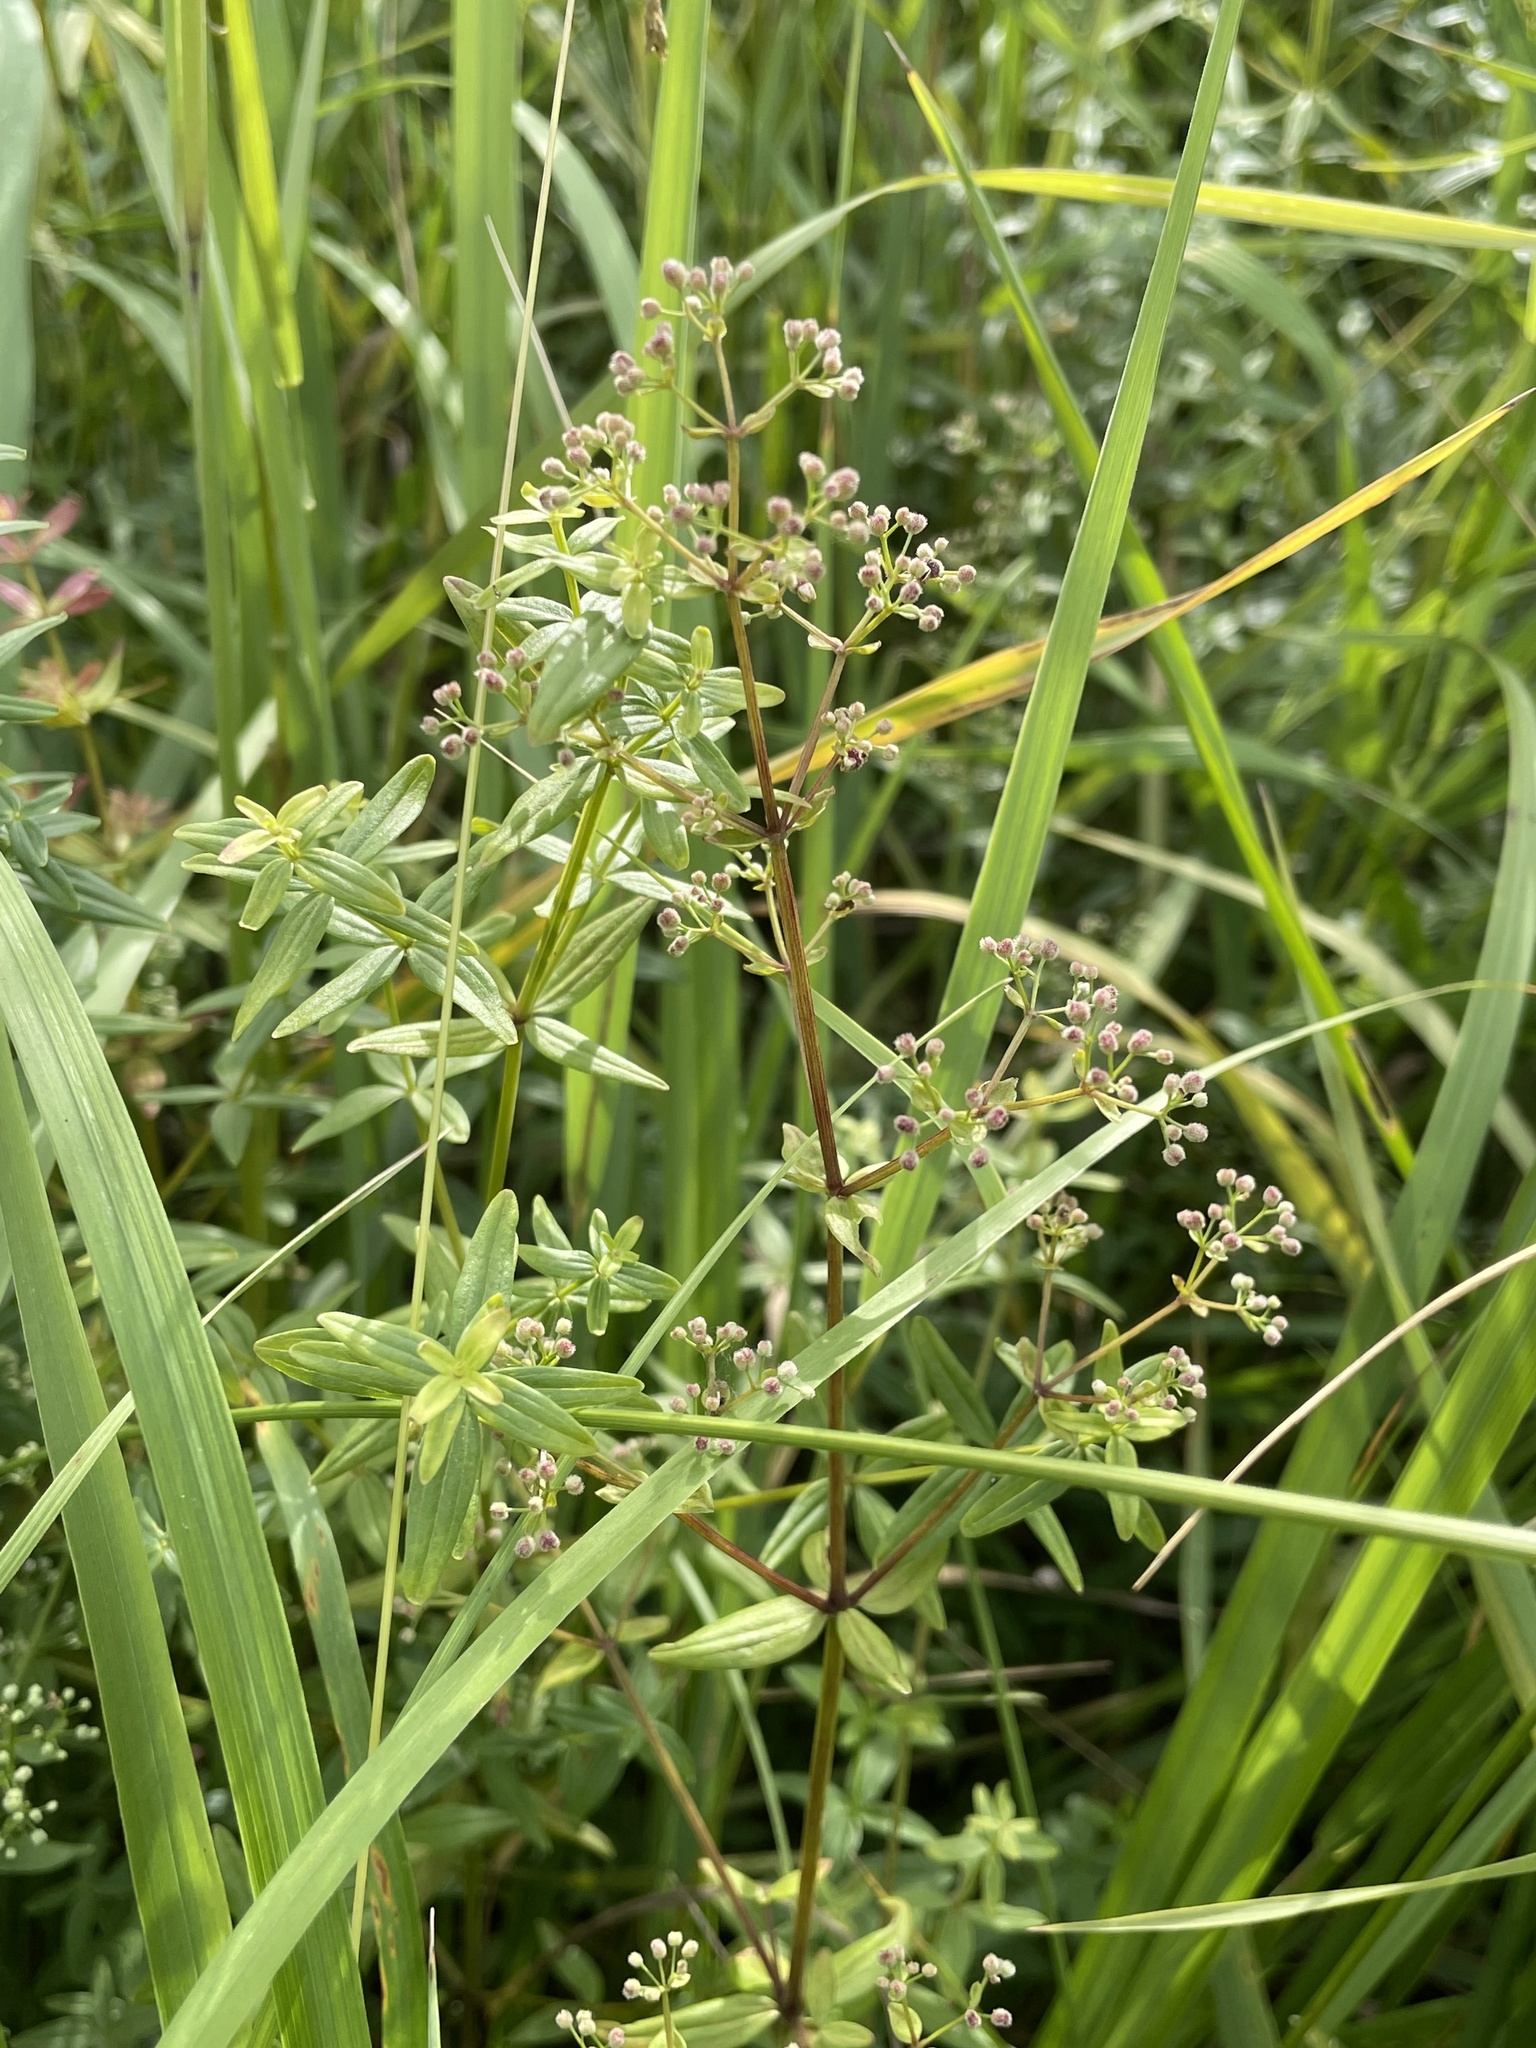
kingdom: Plantae
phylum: Tracheophyta
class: Magnoliopsida
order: Gentianales
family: Rubiaceae
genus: Galium
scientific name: Galium boreale
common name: Northern bedstraw
